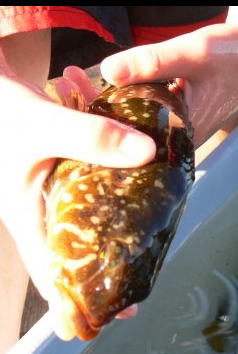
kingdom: Animalia
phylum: Chordata
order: Scorpaeniformes
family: Hexagrammidae
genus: Hexagrammos
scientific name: Hexagrammos stelleri
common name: Whitespotted greenling
